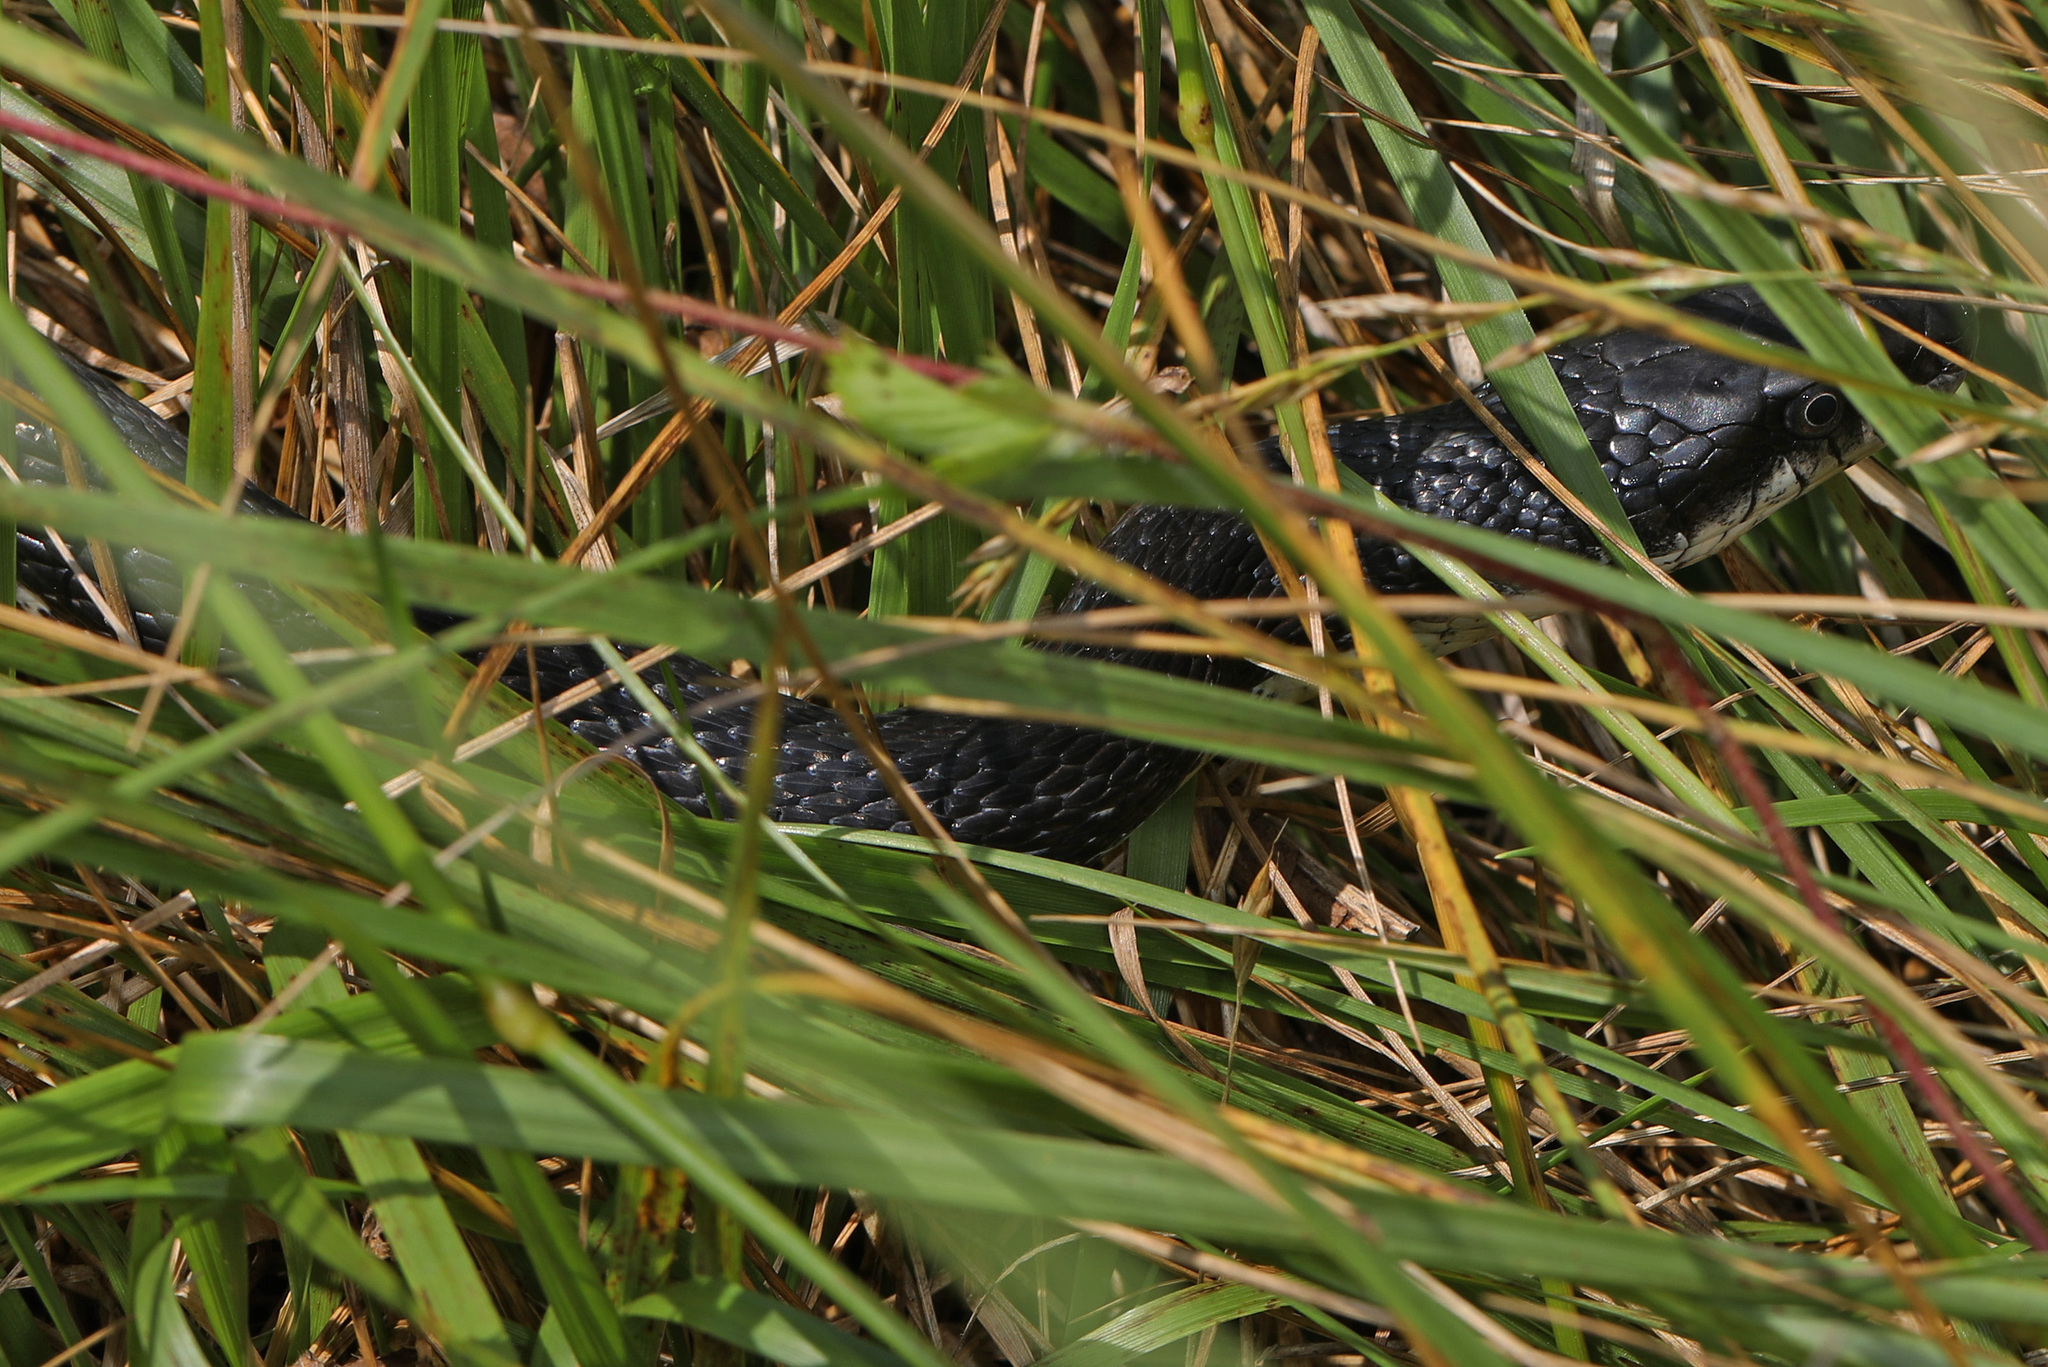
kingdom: Animalia
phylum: Chordata
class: Squamata
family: Colubridae
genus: Pantherophis
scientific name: Pantherophis alleghaniensis
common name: Eastern rat snake
